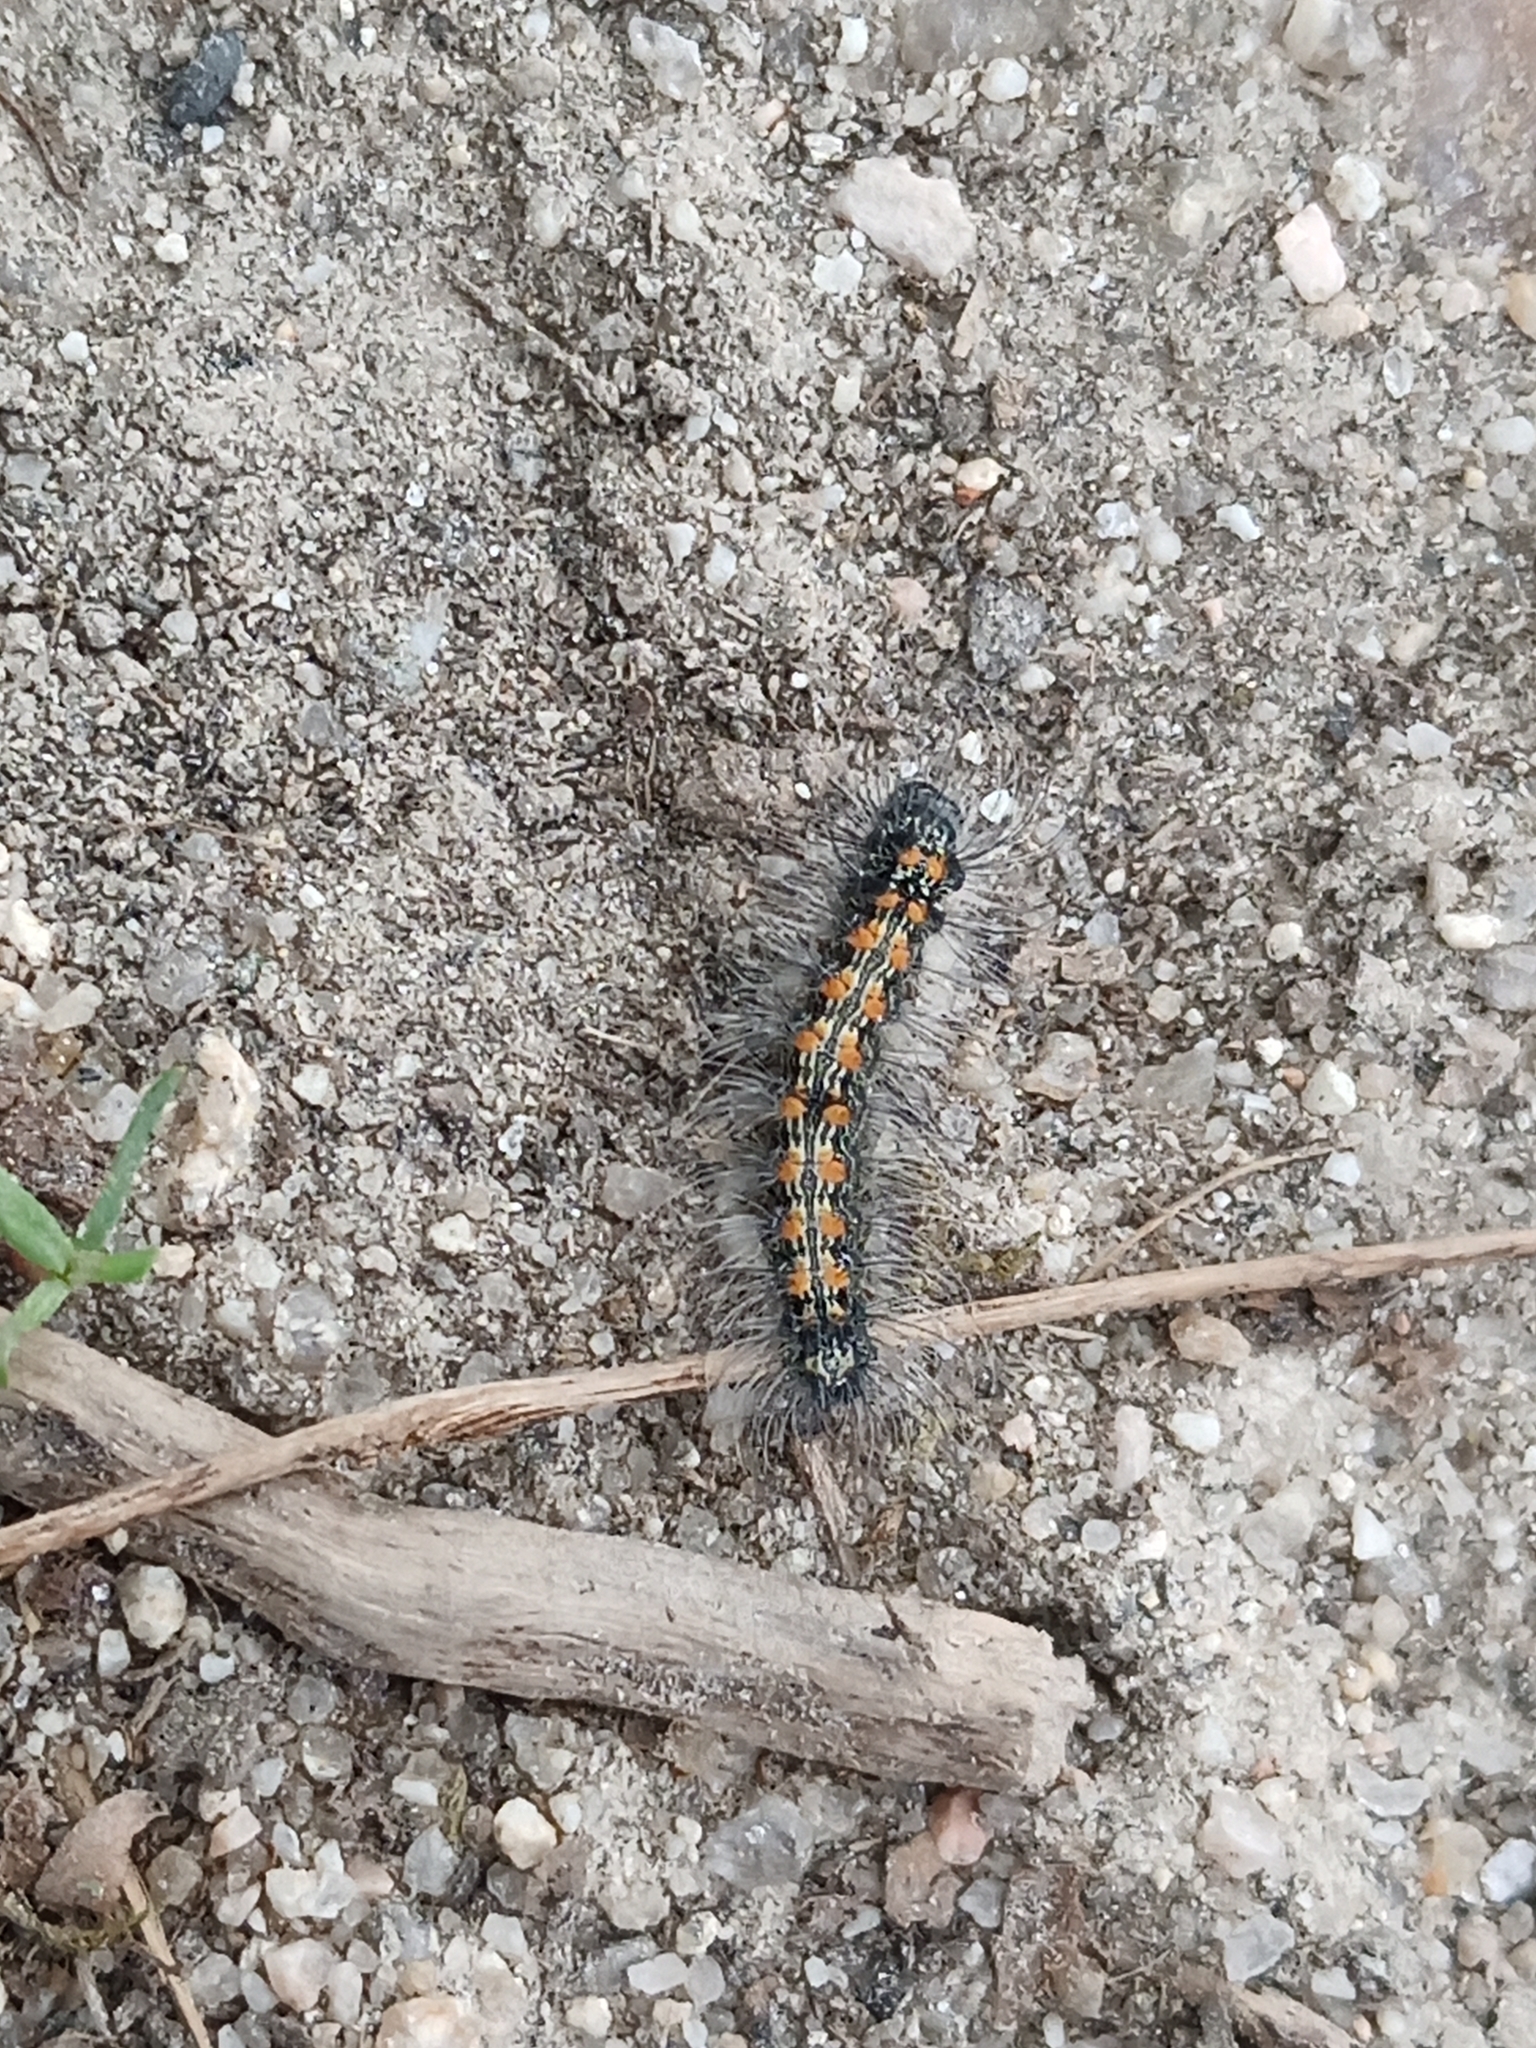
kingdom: Animalia
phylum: Arthropoda
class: Insecta
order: Lepidoptera
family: Erebidae
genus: Lithosia
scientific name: Lithosia quadra
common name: Four-spotted footman
